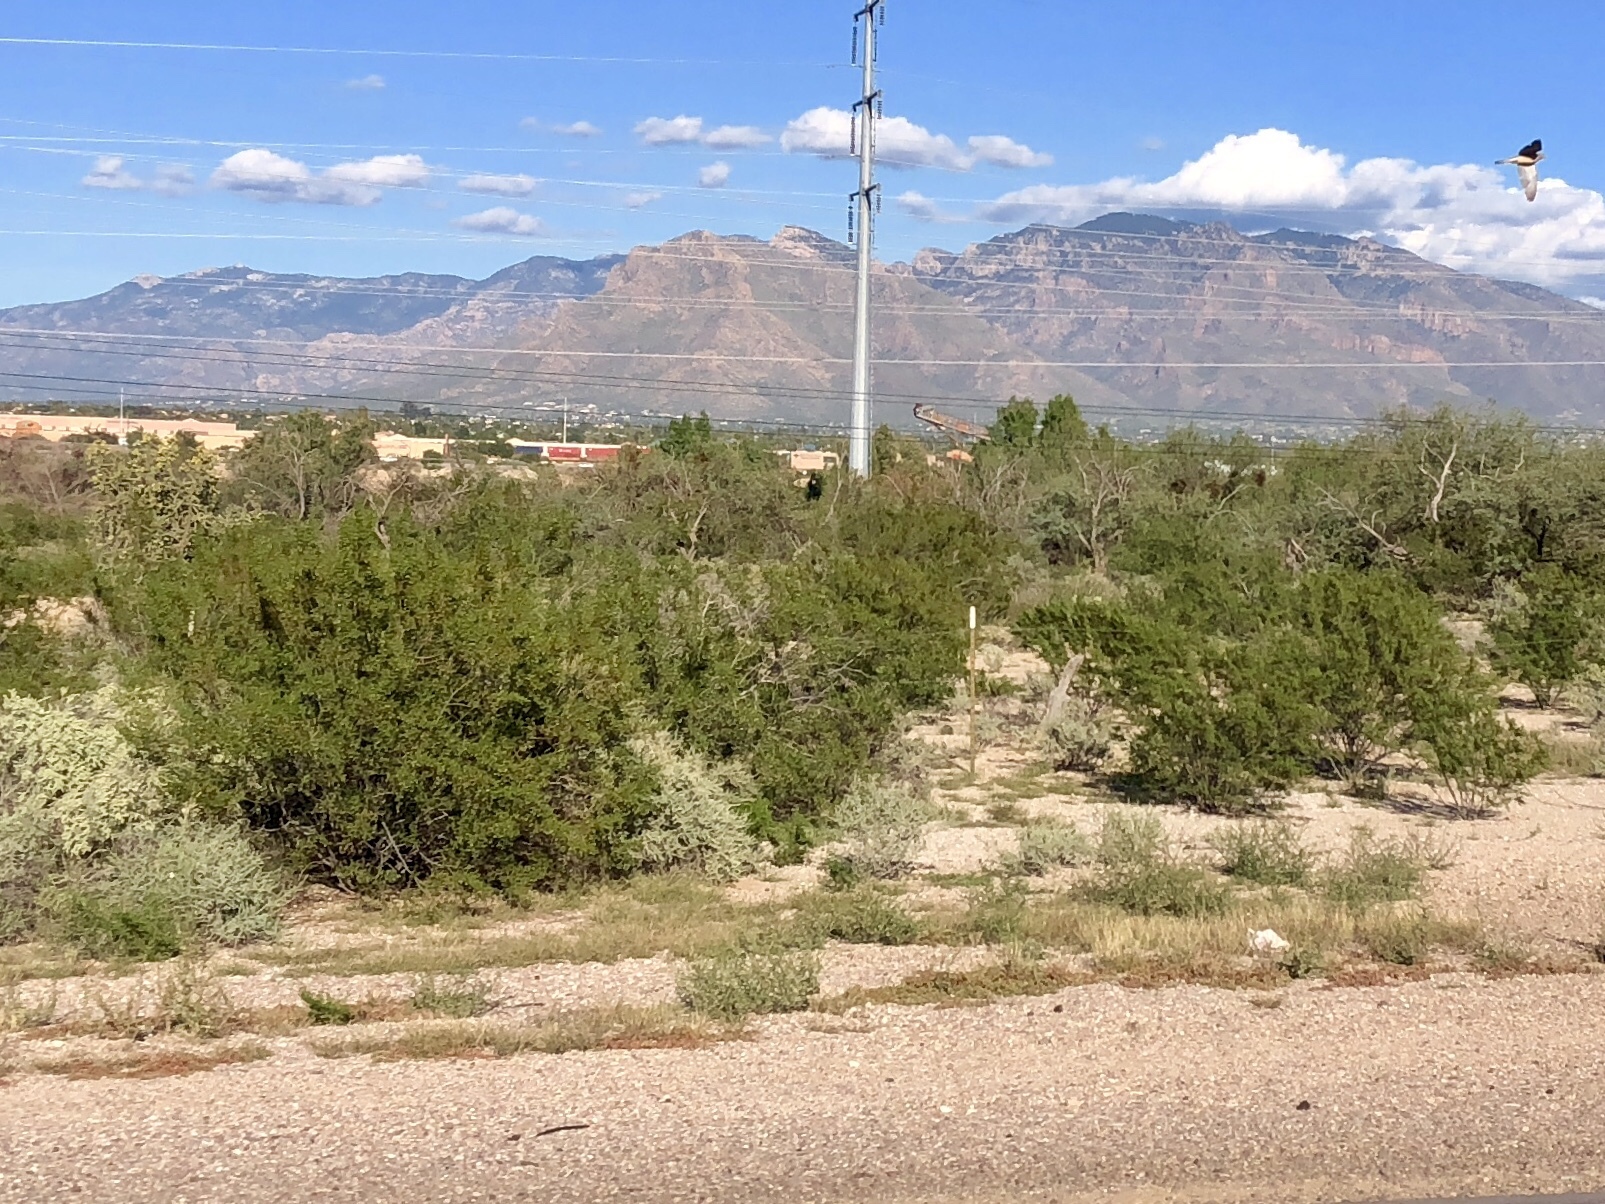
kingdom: Plantae
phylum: Tracheophyta
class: Magnoliopsida
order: Zygophyllales
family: Zygophyllaceae
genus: Larrea
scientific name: Larrea tridentata
